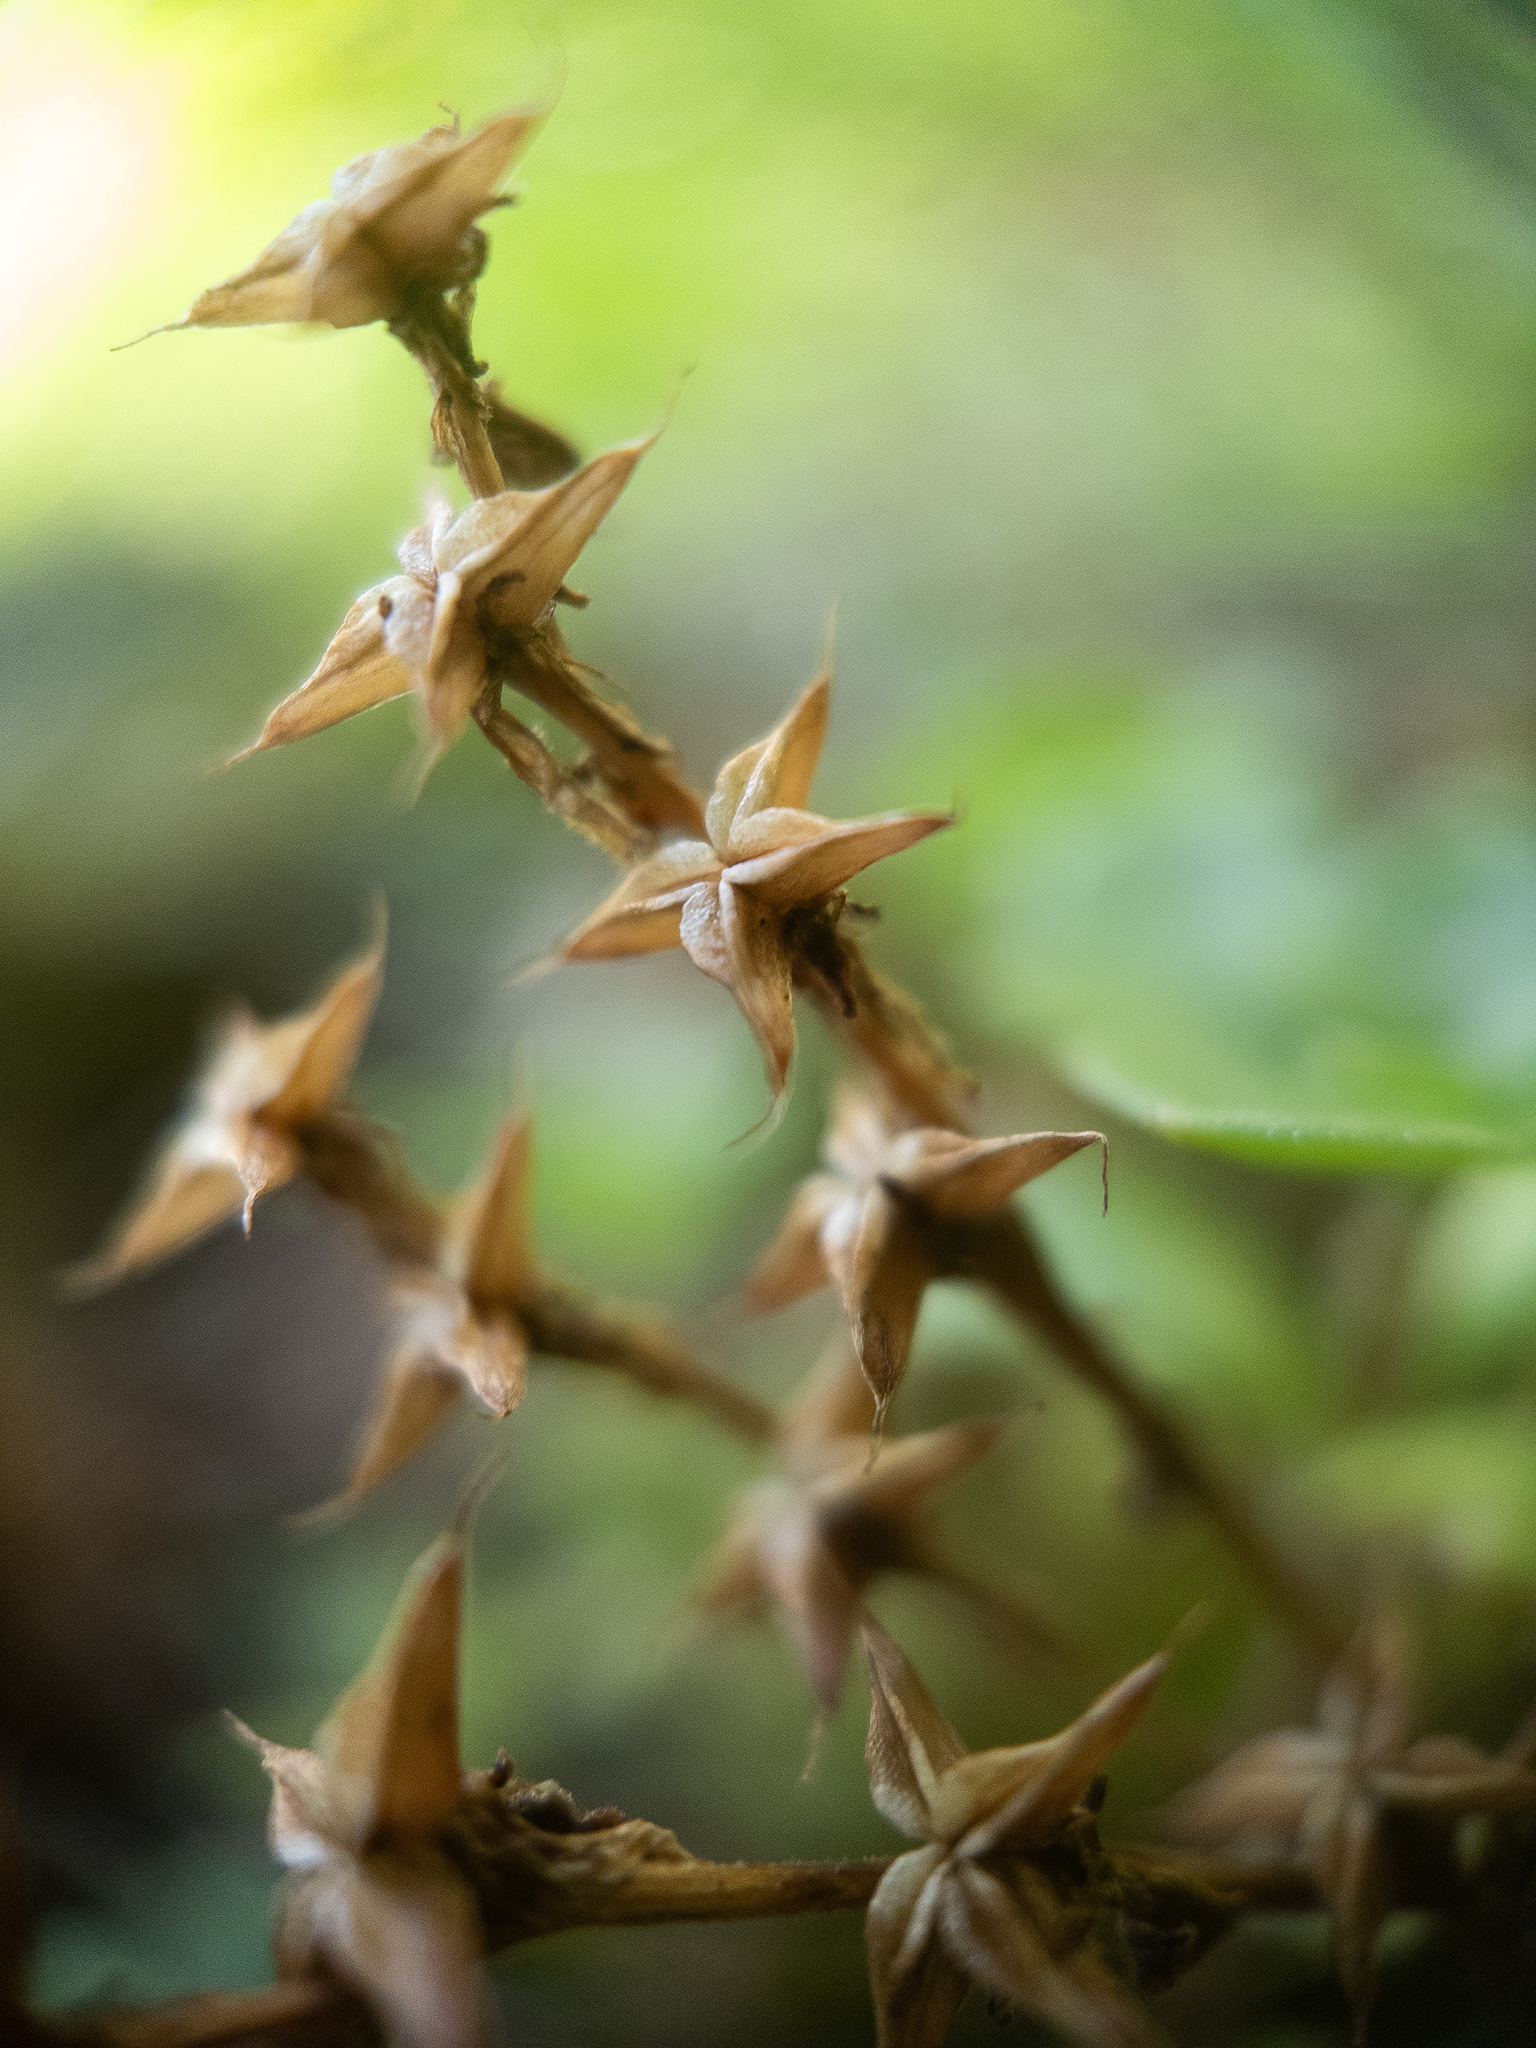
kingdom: Plantae
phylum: Tracheophyta
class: Magnoliopsida
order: Saxifragales
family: Crassulaceae
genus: Sedum
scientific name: Sedum ternatum
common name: Wild stonecrop
